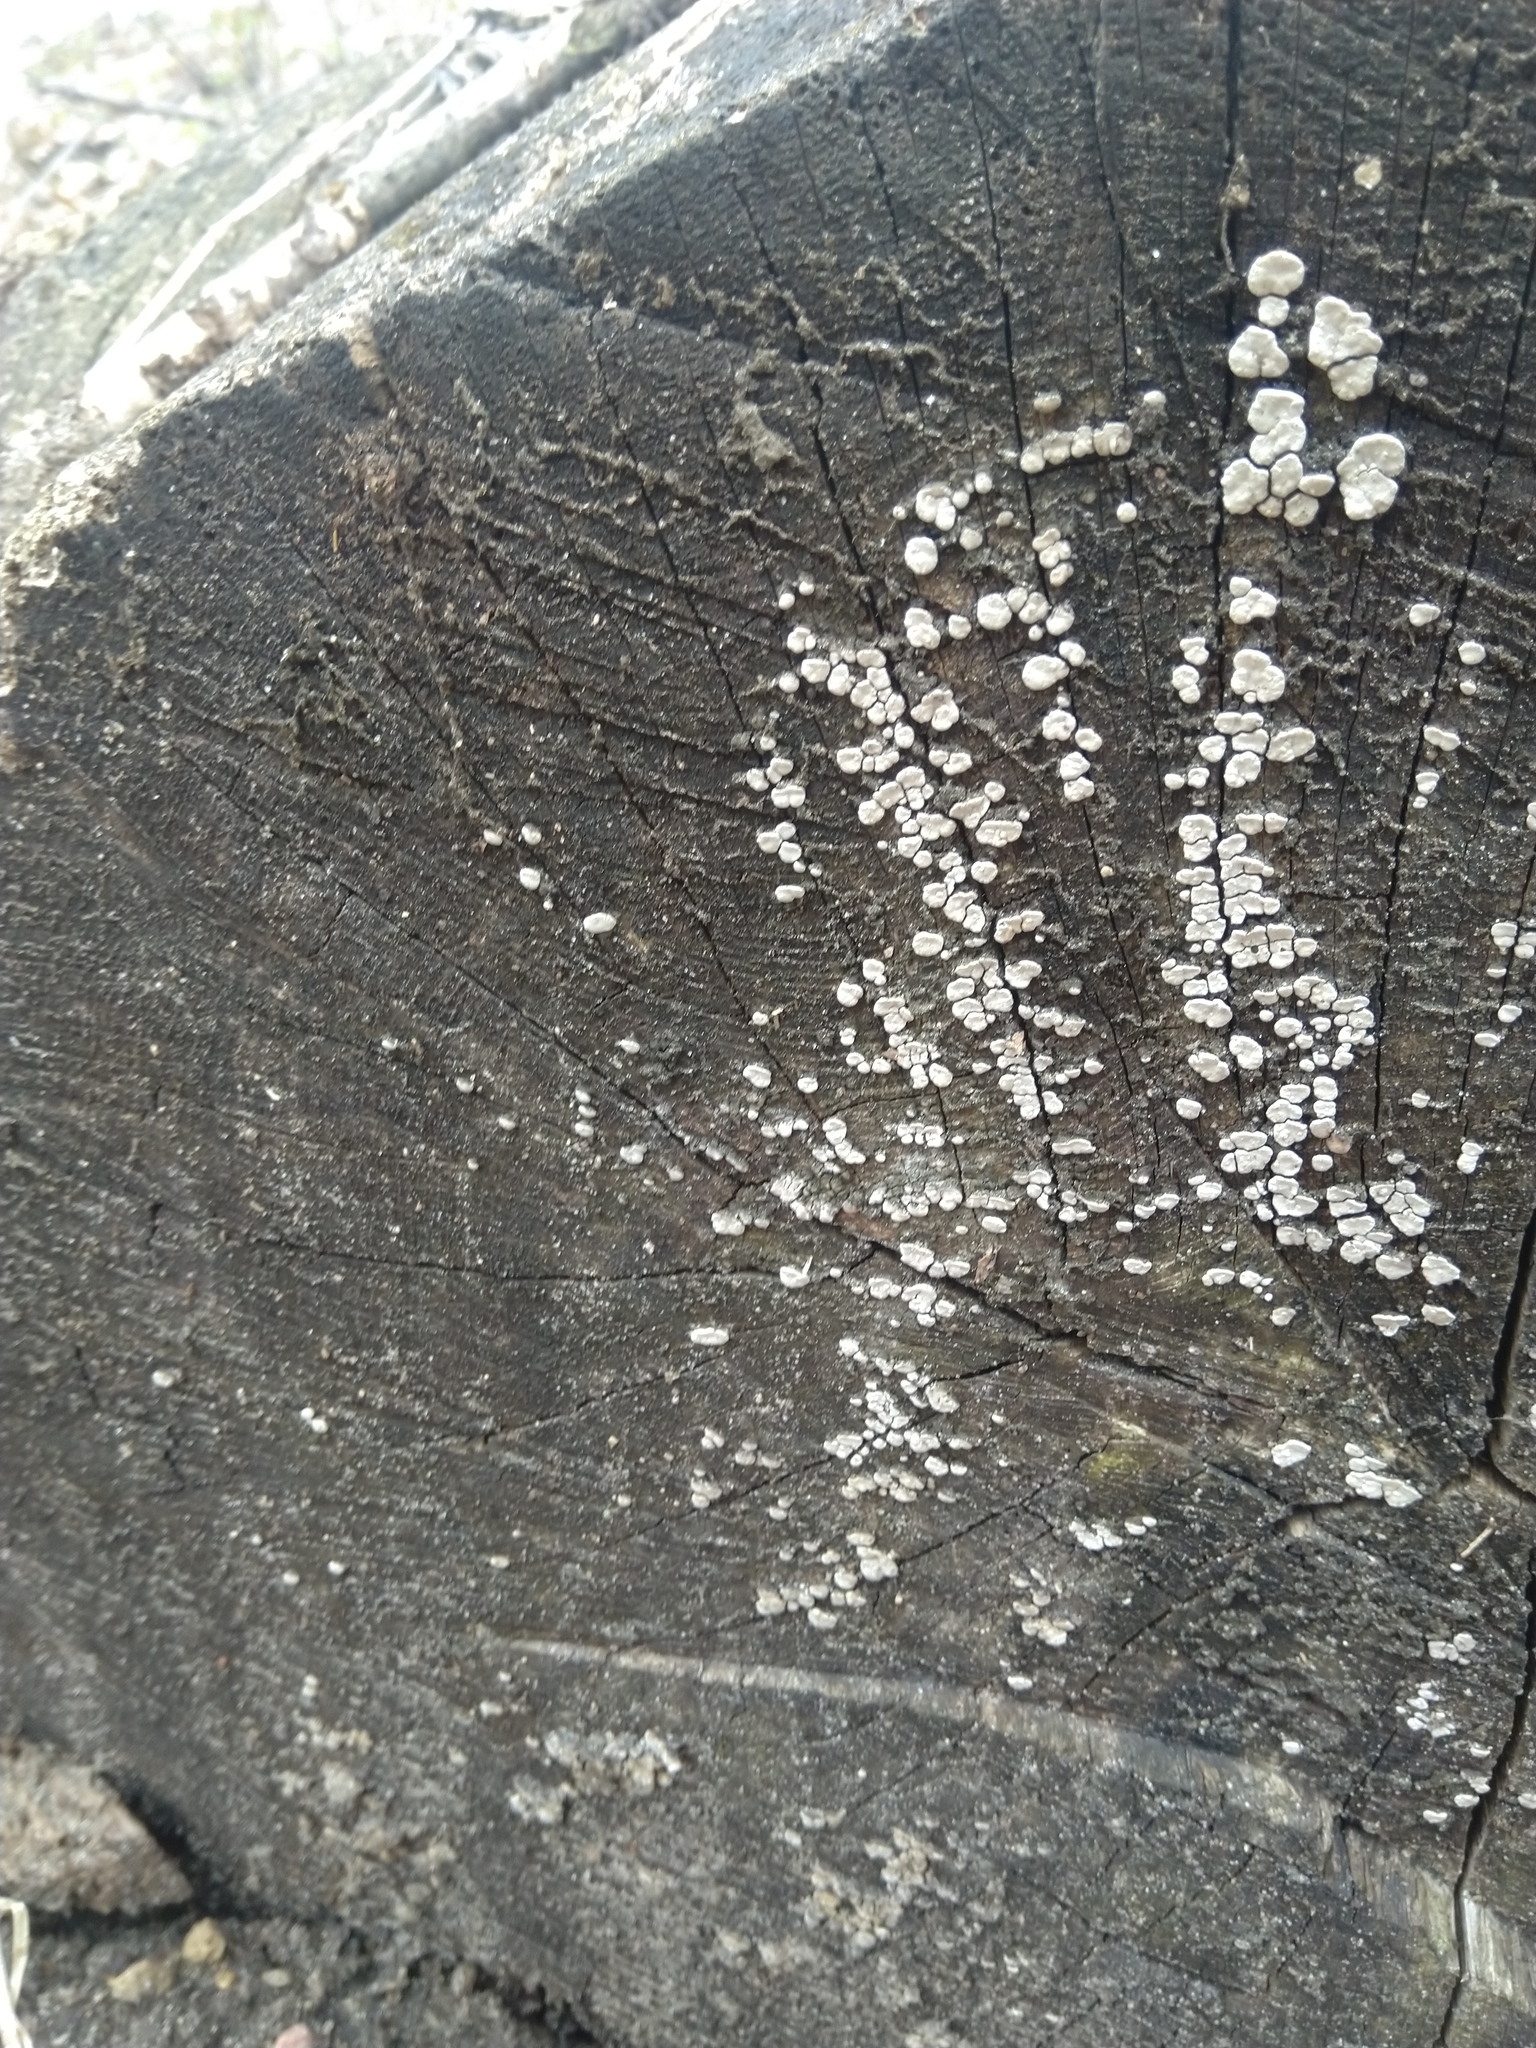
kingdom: Fungi
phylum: Basidiomycota
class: Agaricomycetes
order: Russulales
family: Stereaceae
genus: Xylobolus
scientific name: Xylobolus frustulatus
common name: Ceramic parchment
